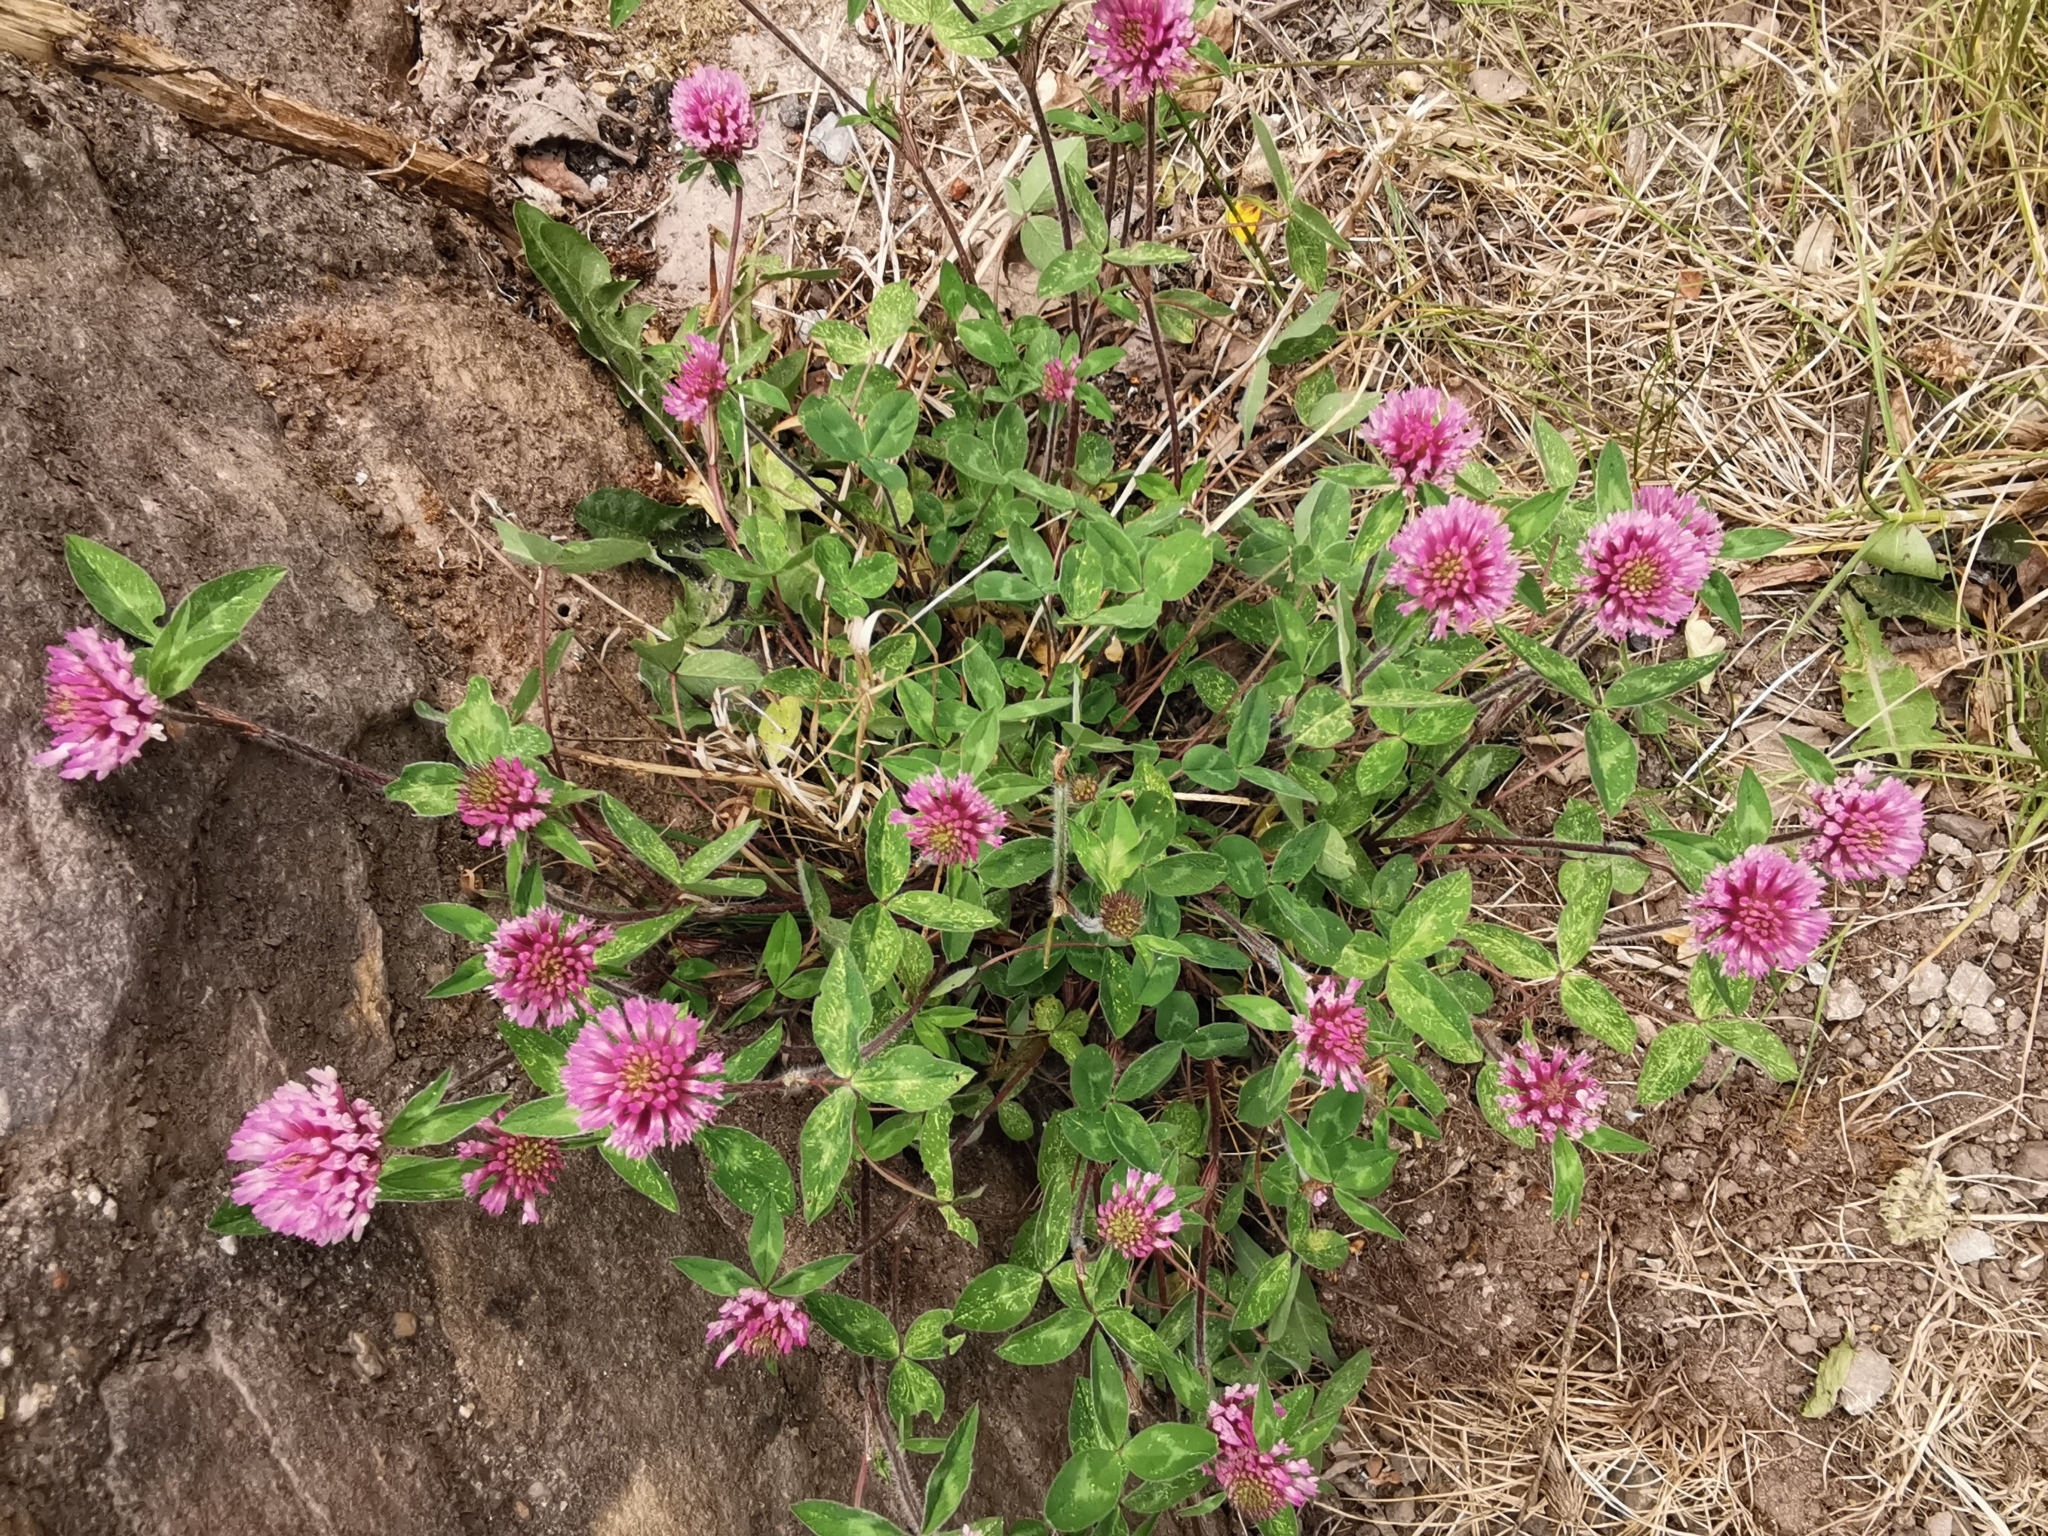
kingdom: Plantae
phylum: Tracheophyta
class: Magnoliopsida
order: Fabales
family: Fabaceae
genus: Trifolium
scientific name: Trifolium pratense
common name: Red clover
